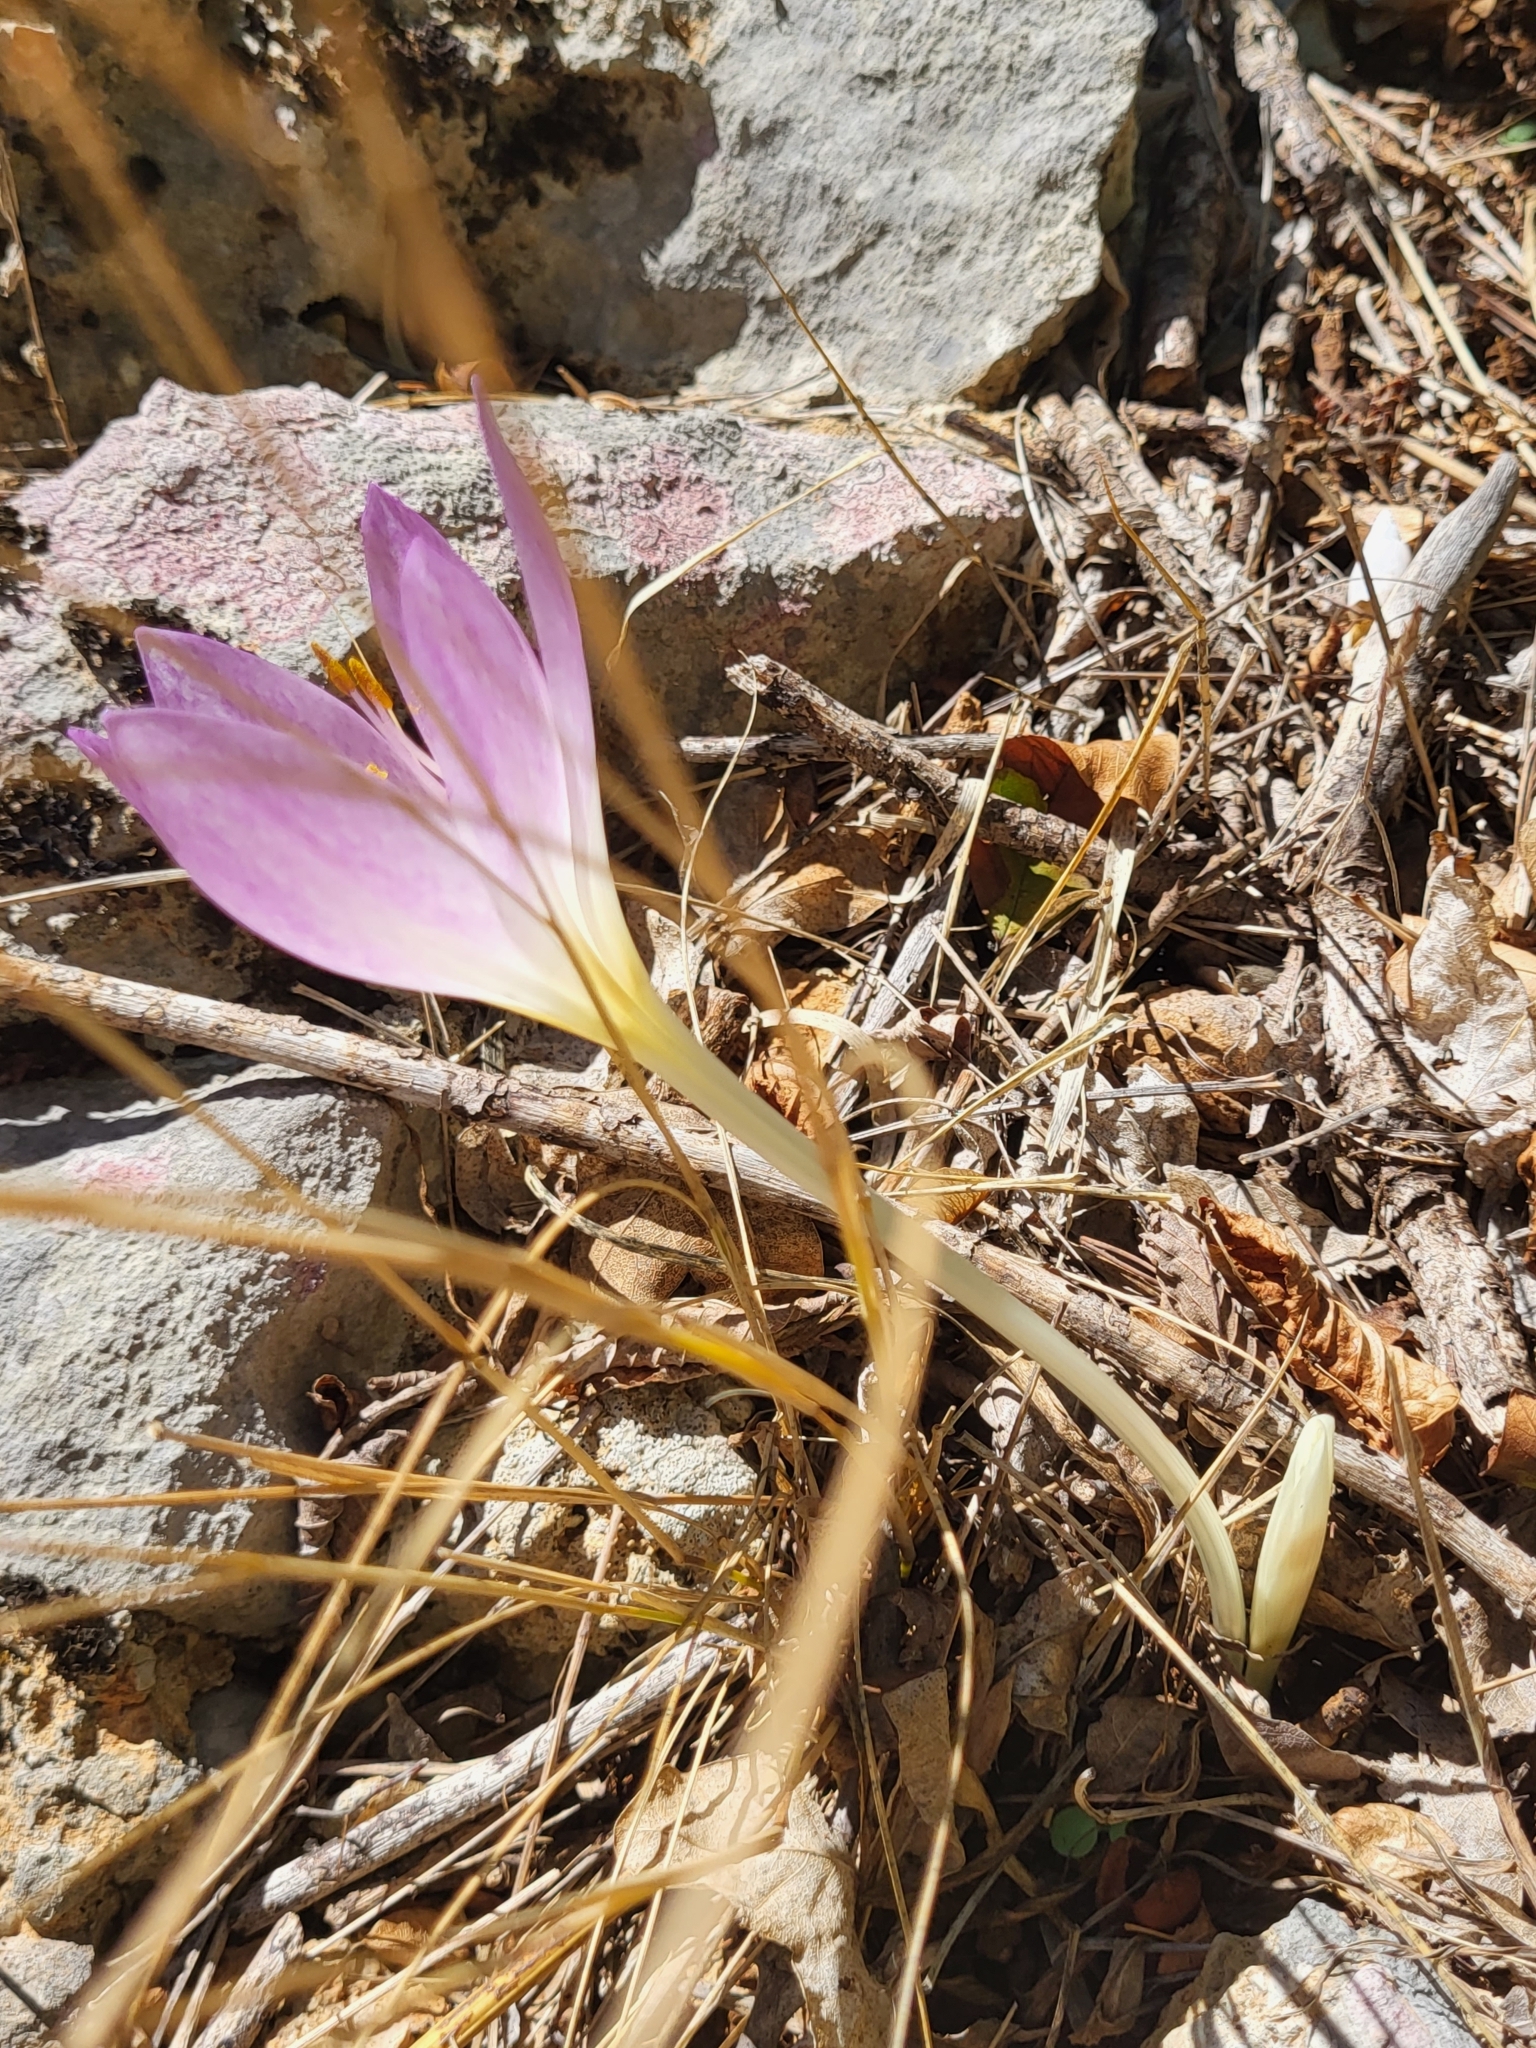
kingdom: Plantae
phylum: Tracheophyta
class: Liliopsida
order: Liliales
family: Colchicaceae
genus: Colchicum
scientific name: Colchicum haynaldii
